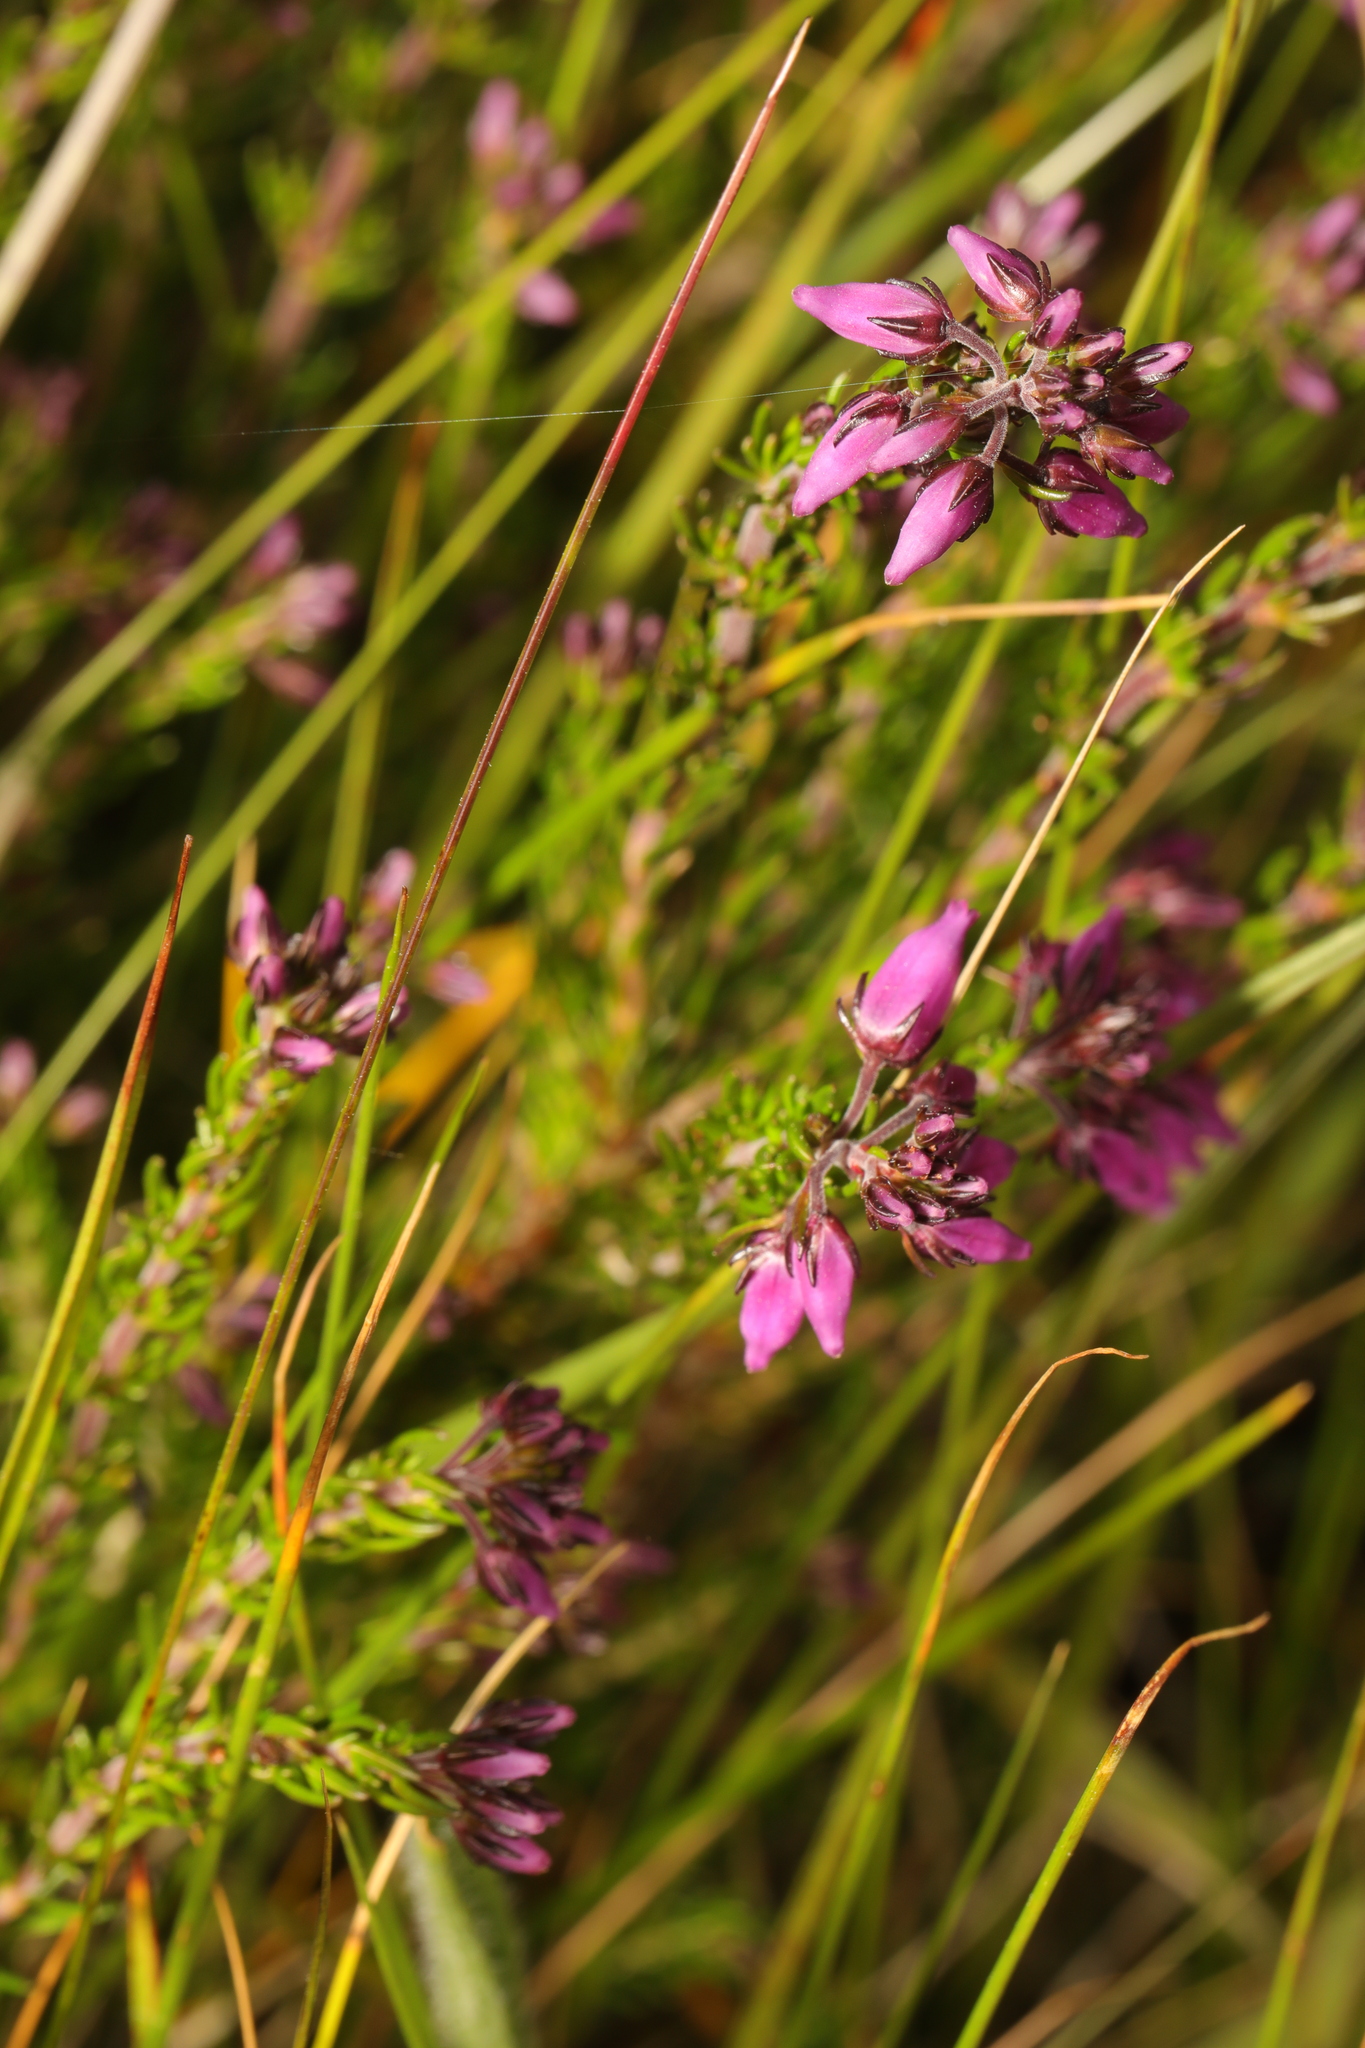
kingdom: Plantae
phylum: Tracheophyta
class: Magnoliopsida
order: Ericales
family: Ericaceae
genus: Erica
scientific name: Erica cinerea
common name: Bell heather
